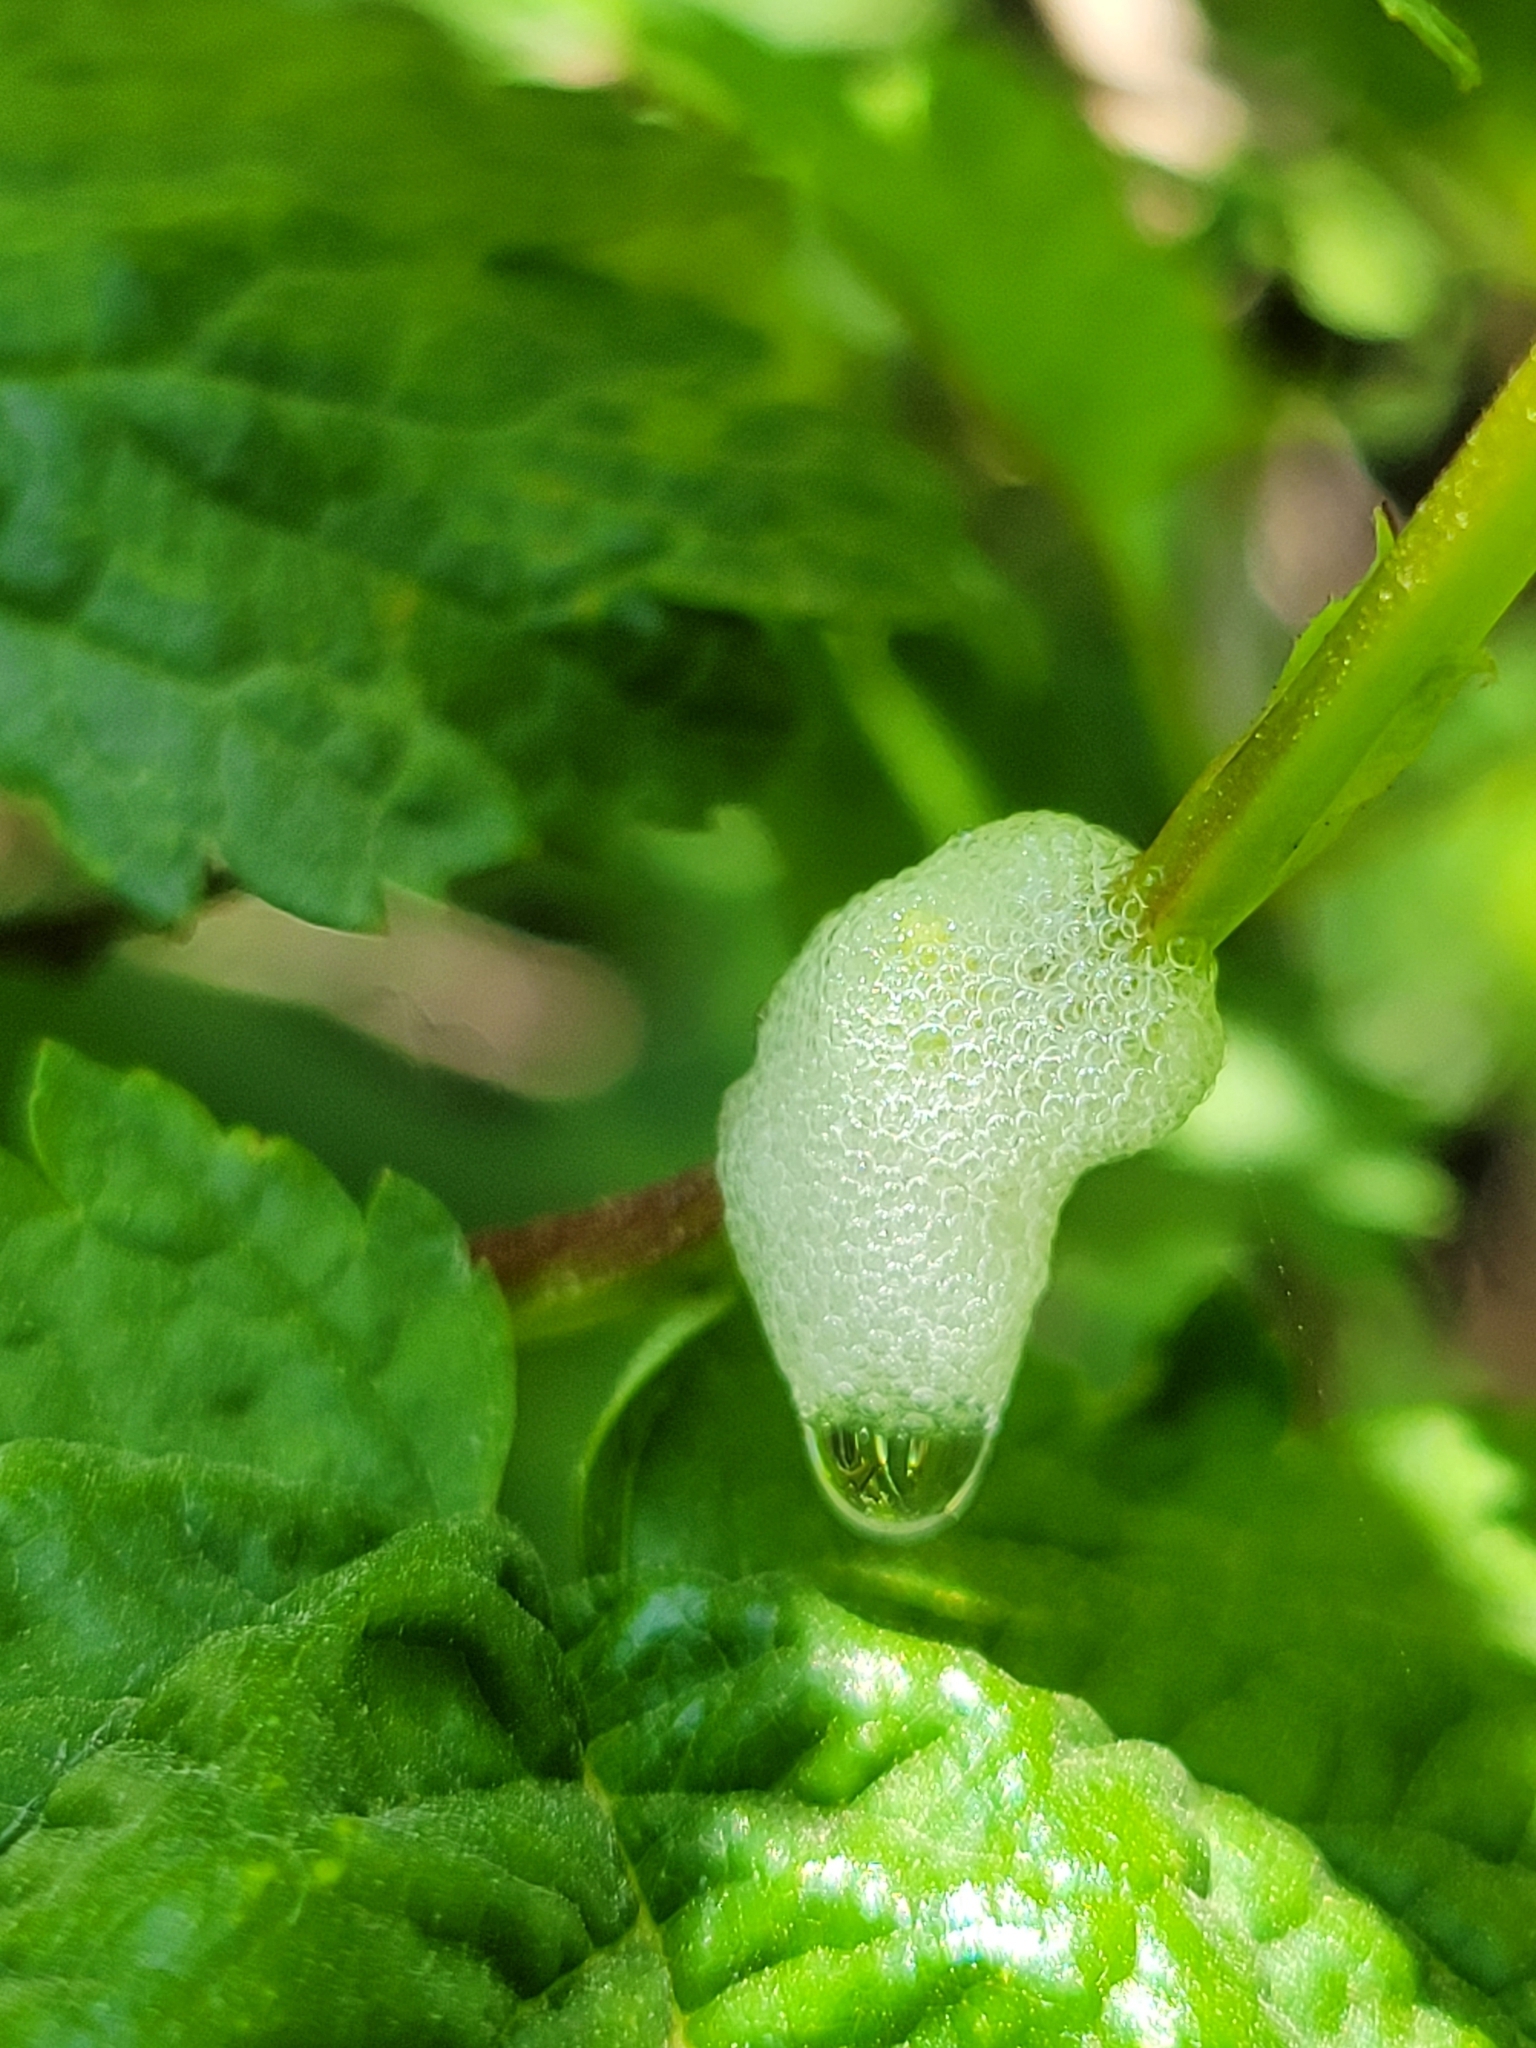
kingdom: Animalia
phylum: Arthropoda
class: Insecta
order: Hemiptera
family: Aphrophoridae
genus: Philaenus
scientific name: Philaenus spumarius
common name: Meadow spittlebug
